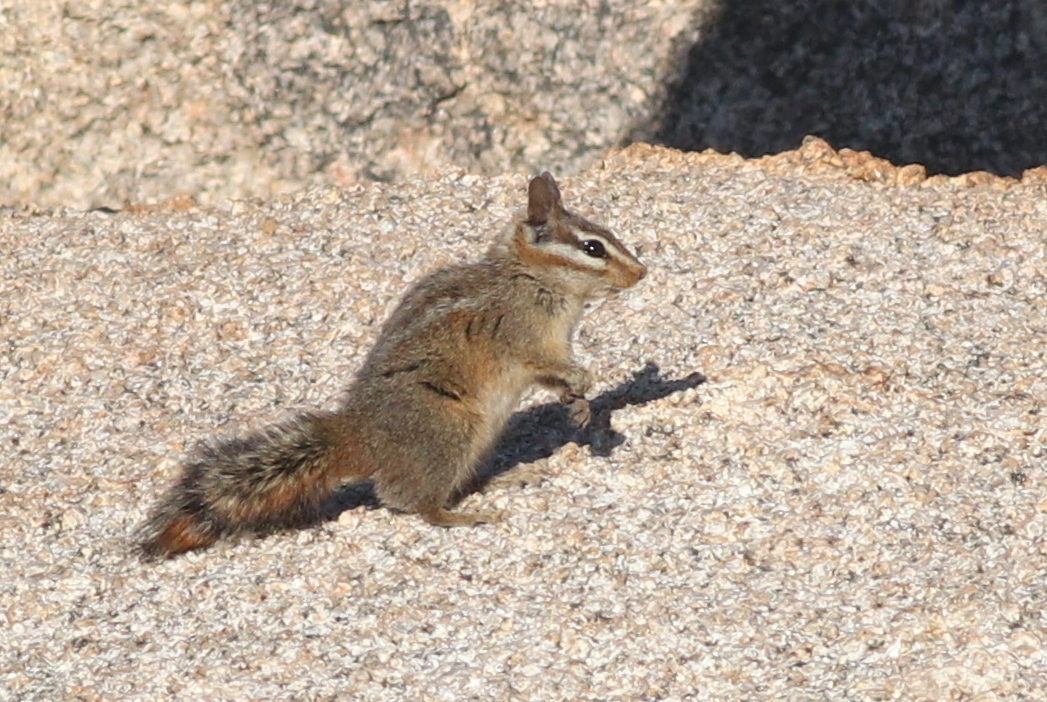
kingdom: Animalia
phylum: Chordata
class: Mammalia
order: Rodentia
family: Sciuridae
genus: Tamias
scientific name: Tamias obscurus
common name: California chipmunk
